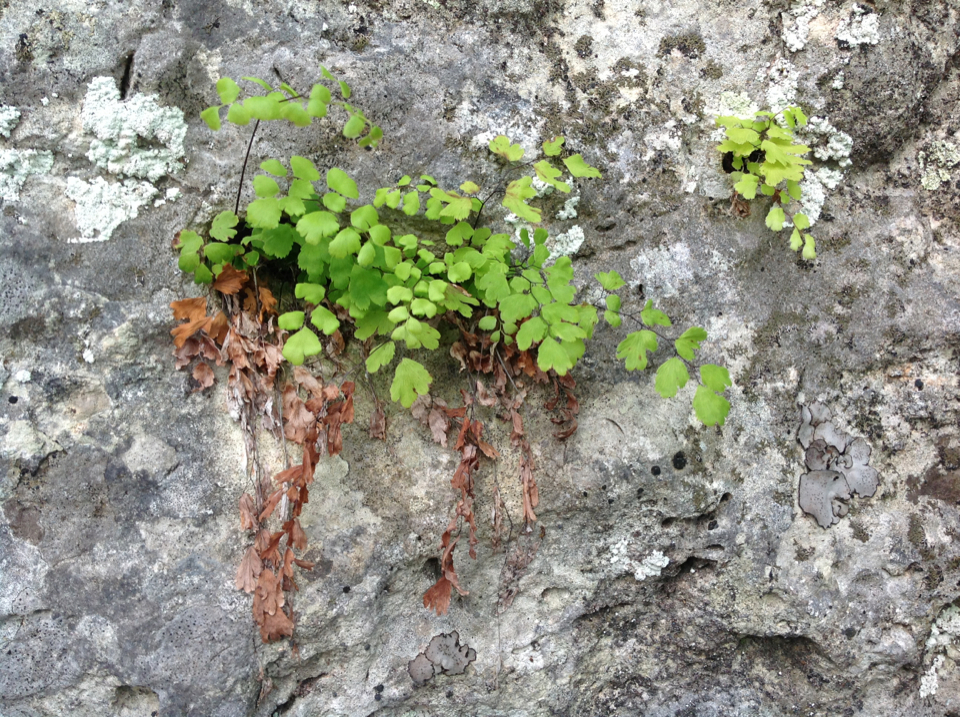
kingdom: Plantae
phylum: Tracheophyta
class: Polypodiopsida
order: Polypodiales
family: Pteridaceae
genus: Adiantum
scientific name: Adiantum capillus-veneris
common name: Maidenhair fern
